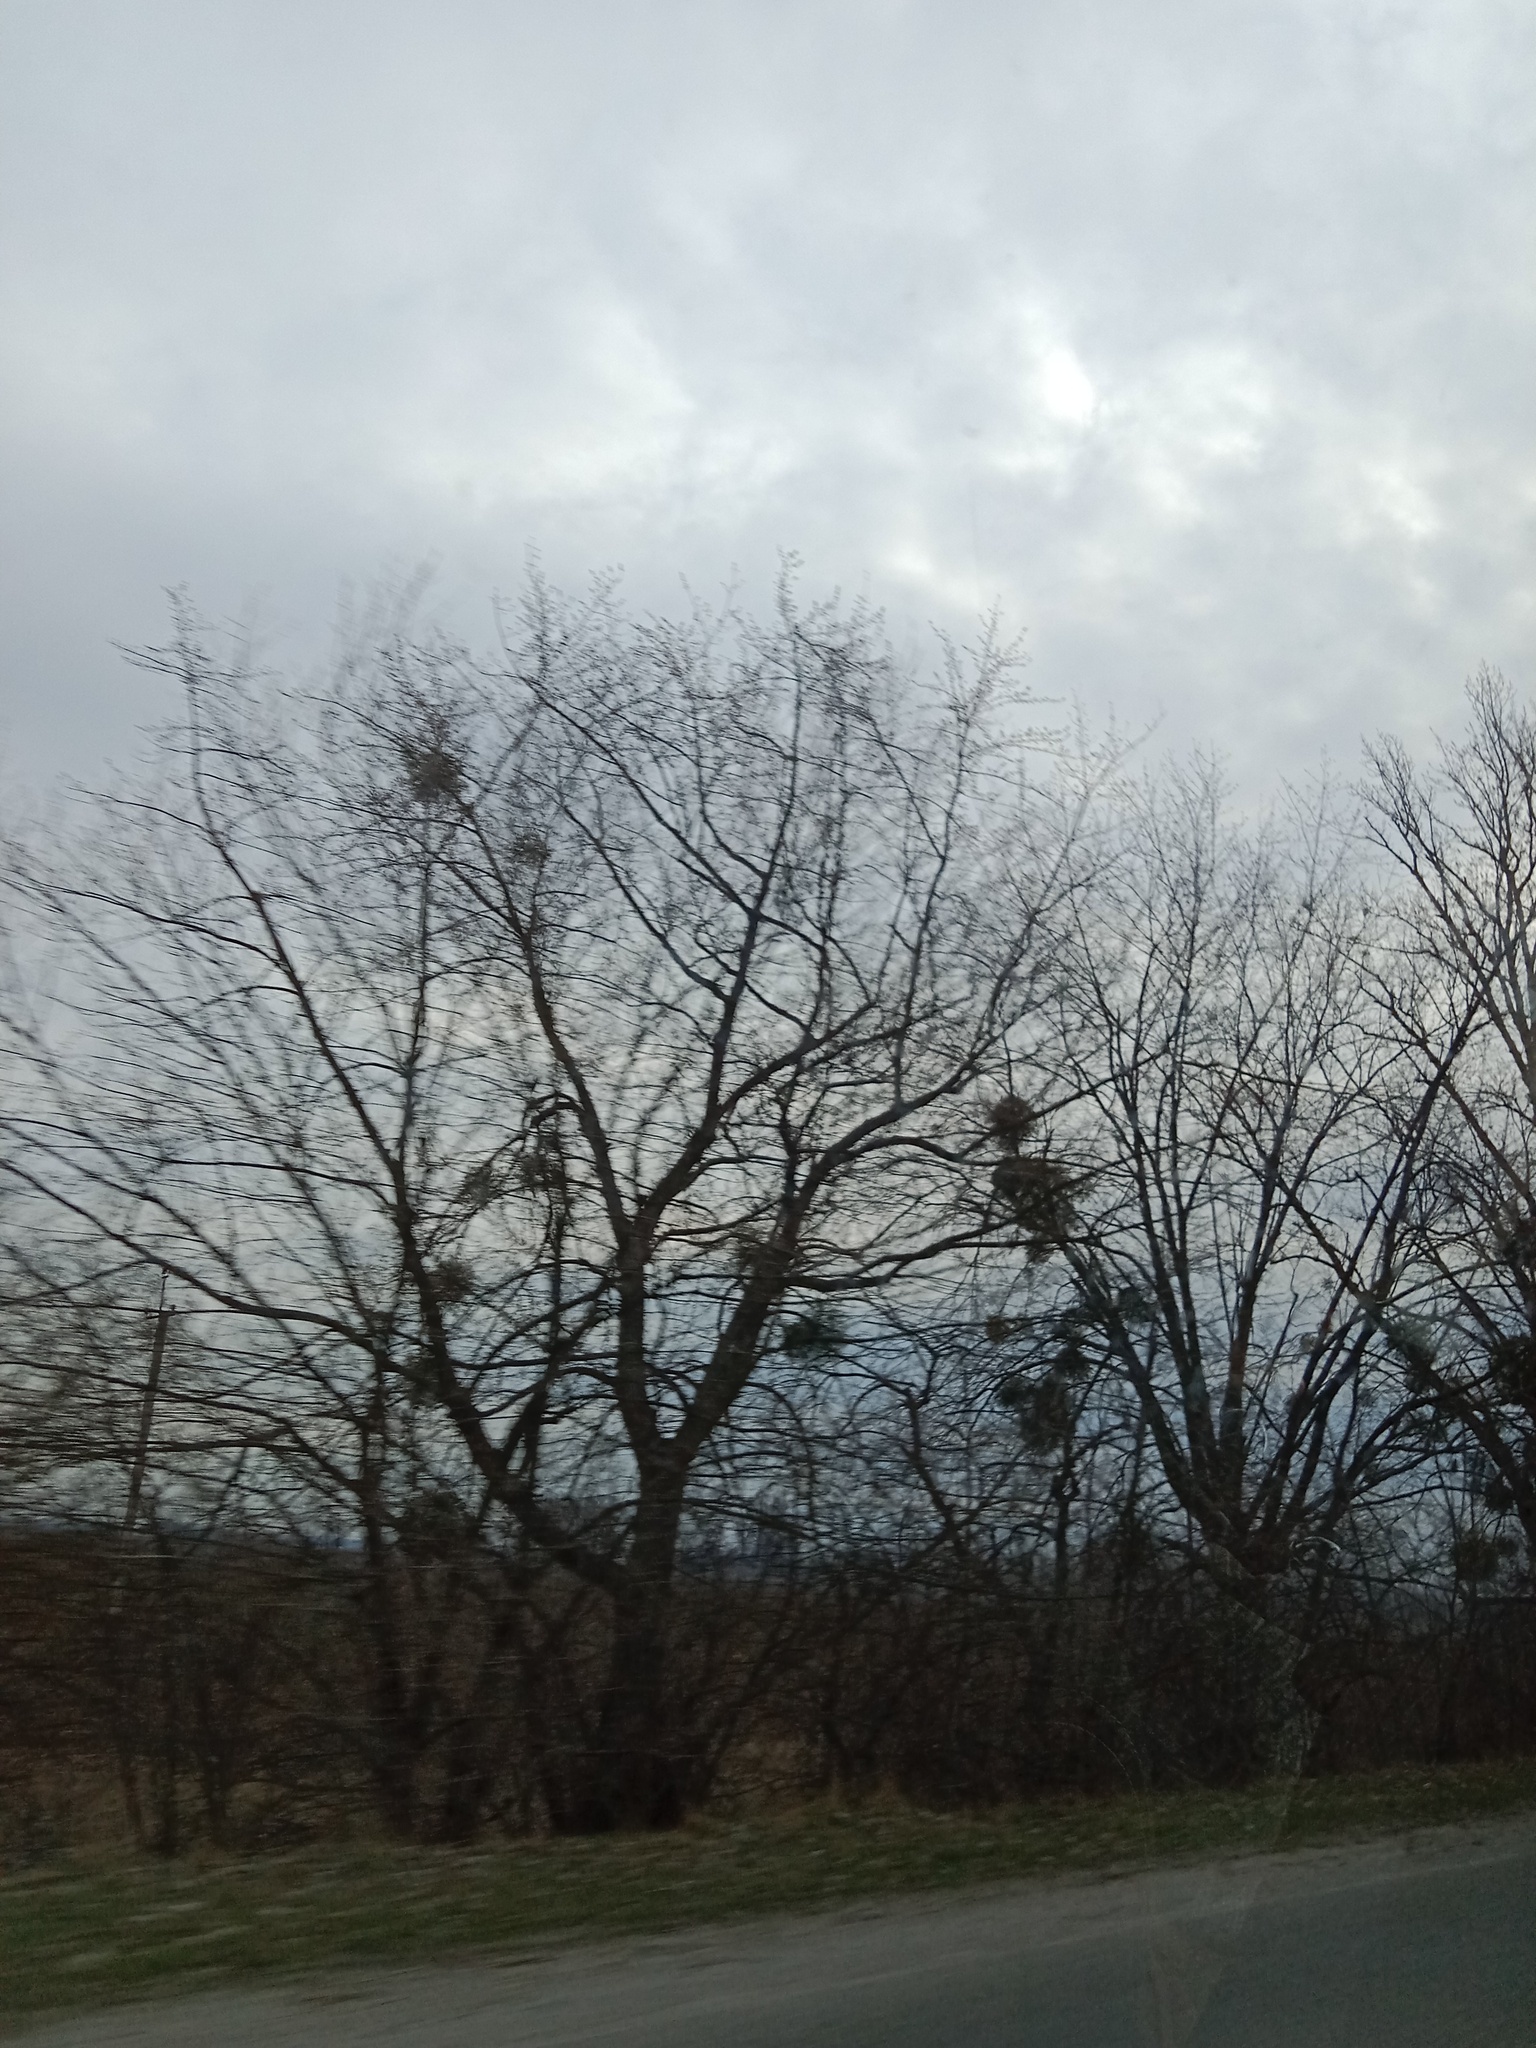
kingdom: Plantae
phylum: Tracheophyta
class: Magnoliopsida
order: Santalales
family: Viscaceae
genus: Viscum
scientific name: Viscum album
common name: Mistletoe
